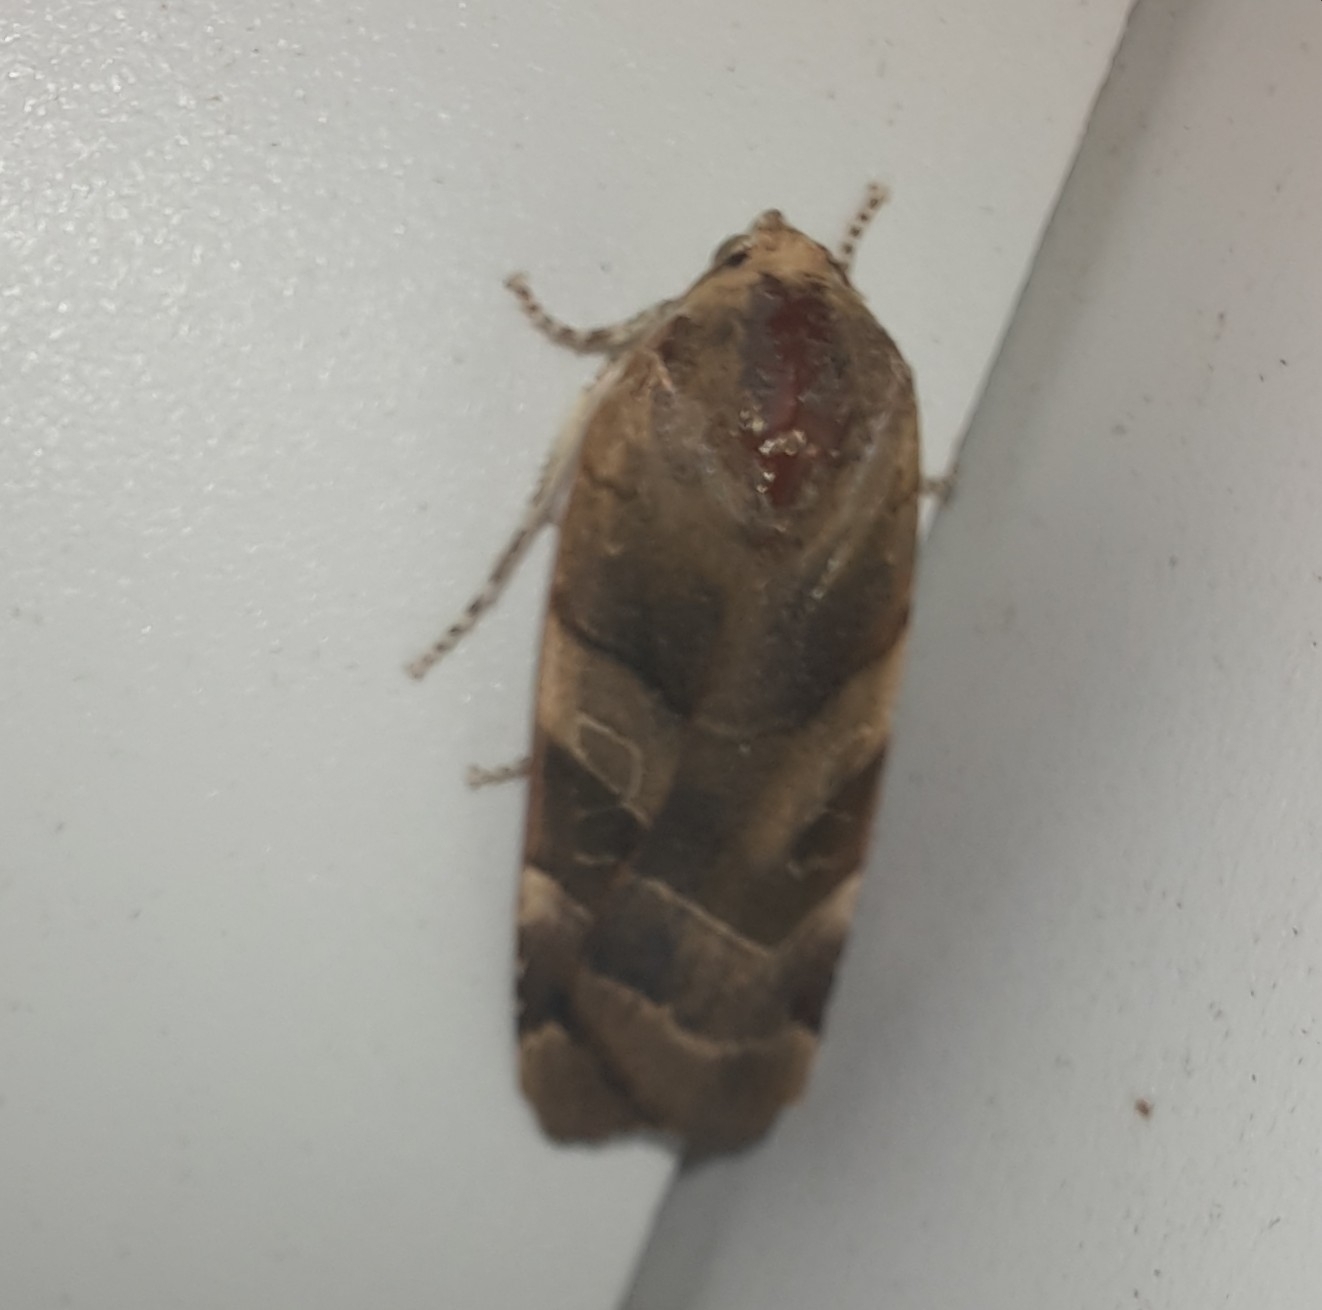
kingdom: Animalia
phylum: Arthropoda
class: Insecta
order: Lepidoptera
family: Noctuidae
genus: Noctua
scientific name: Noctua fimbriata
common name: Broad-bordered yellow underwing
